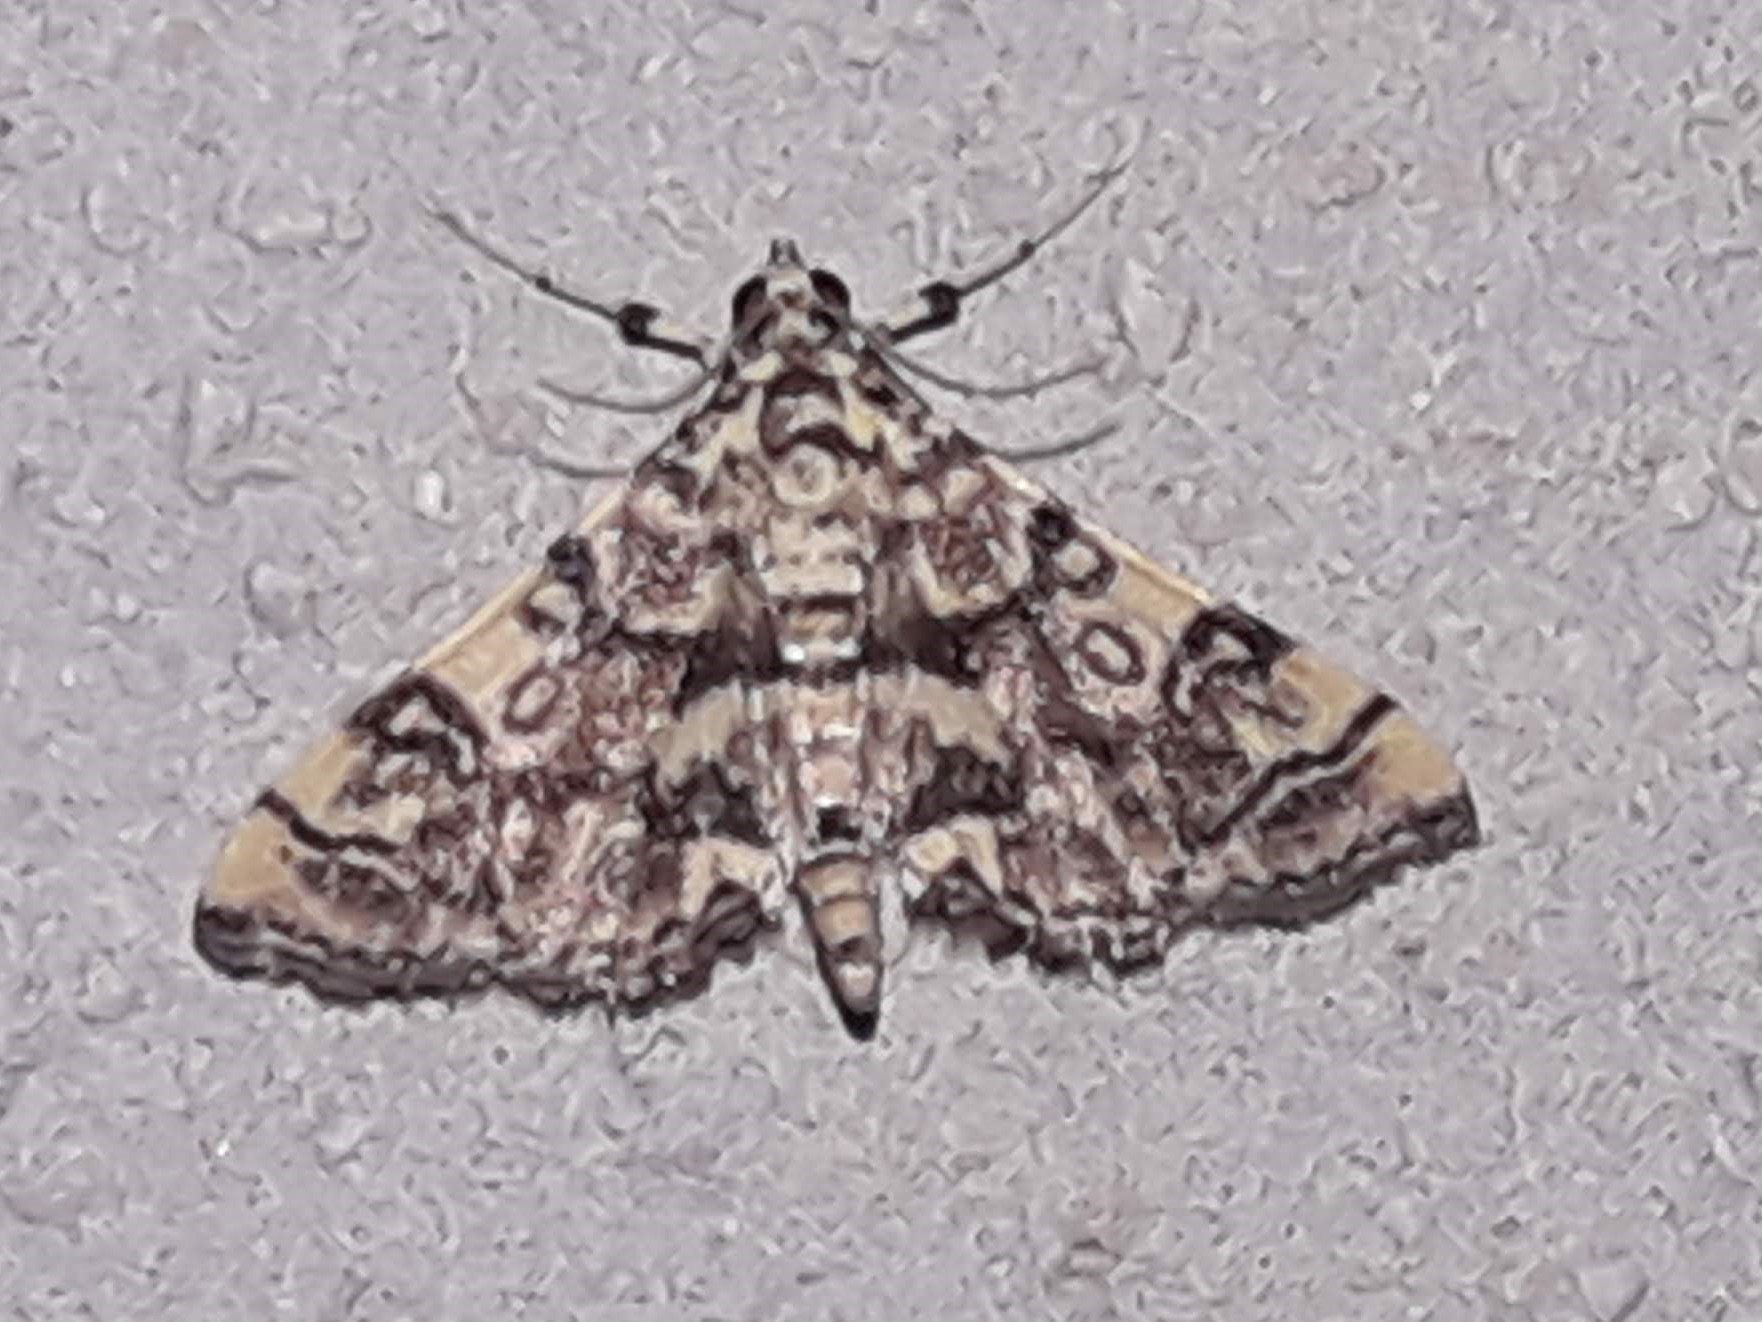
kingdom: Animalia
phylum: Arthropoda
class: Insecta
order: Lepidoptera
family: Crambidae
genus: Apogeshna
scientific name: Apogeshna stenialis
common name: Checkered apogeshna moth
